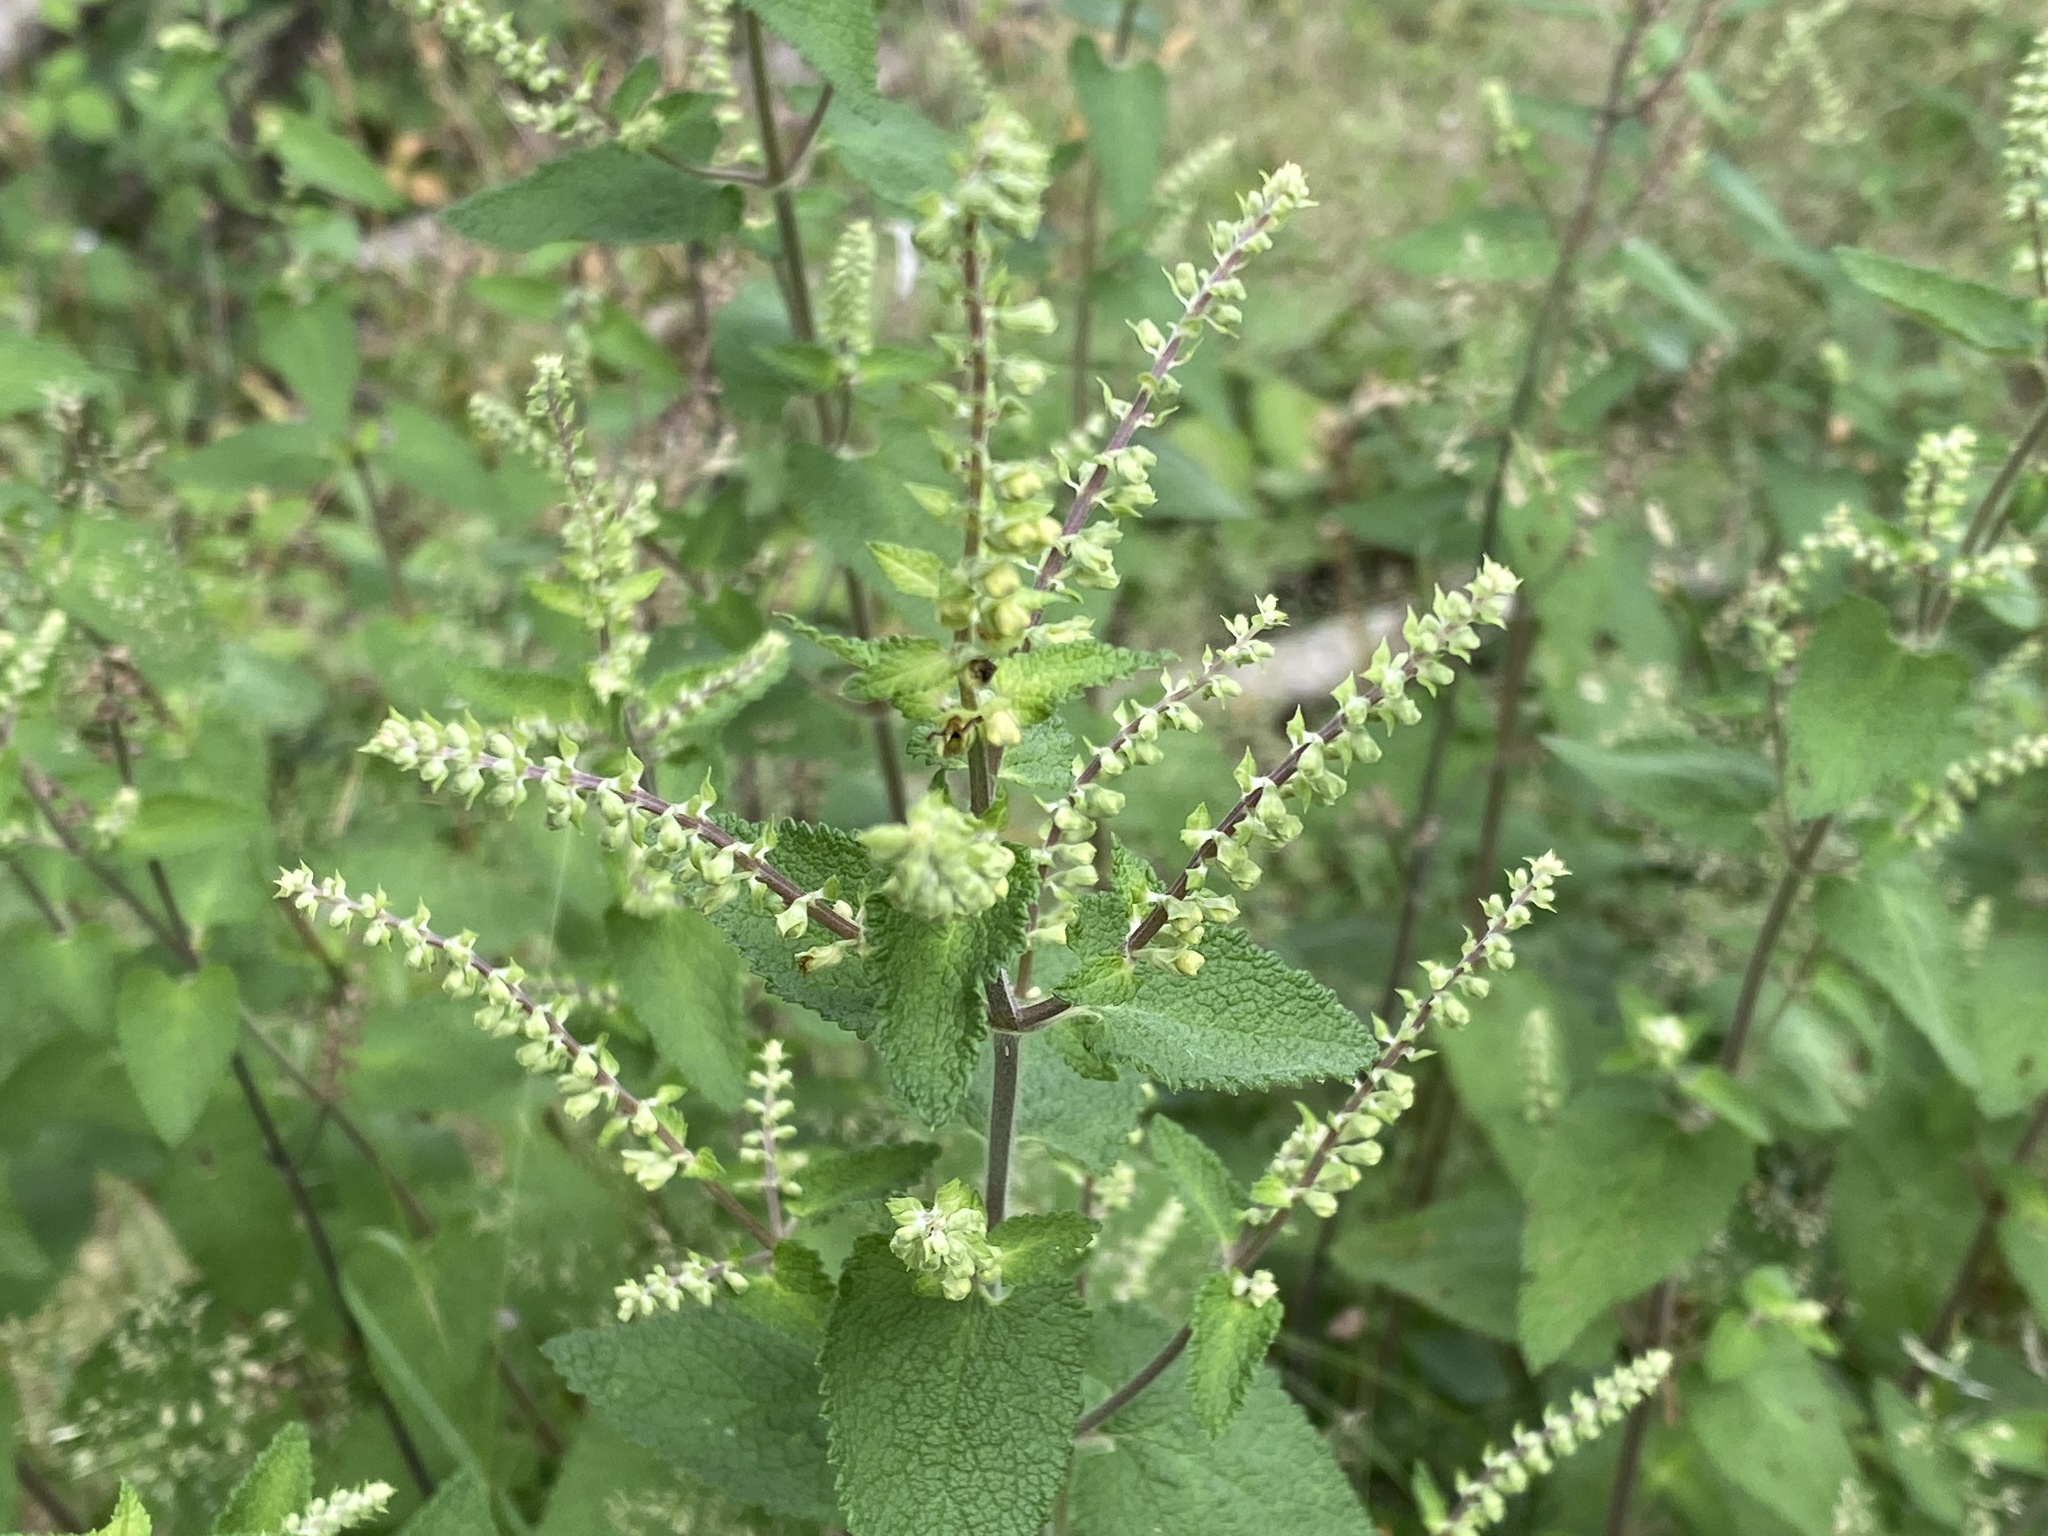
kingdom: Plantae
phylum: Tracheophyta
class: Magnoliopsida
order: Lamiales
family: Lamiaceae
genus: Teucrium
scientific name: Teucrium scorodonia
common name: Woodland germander
